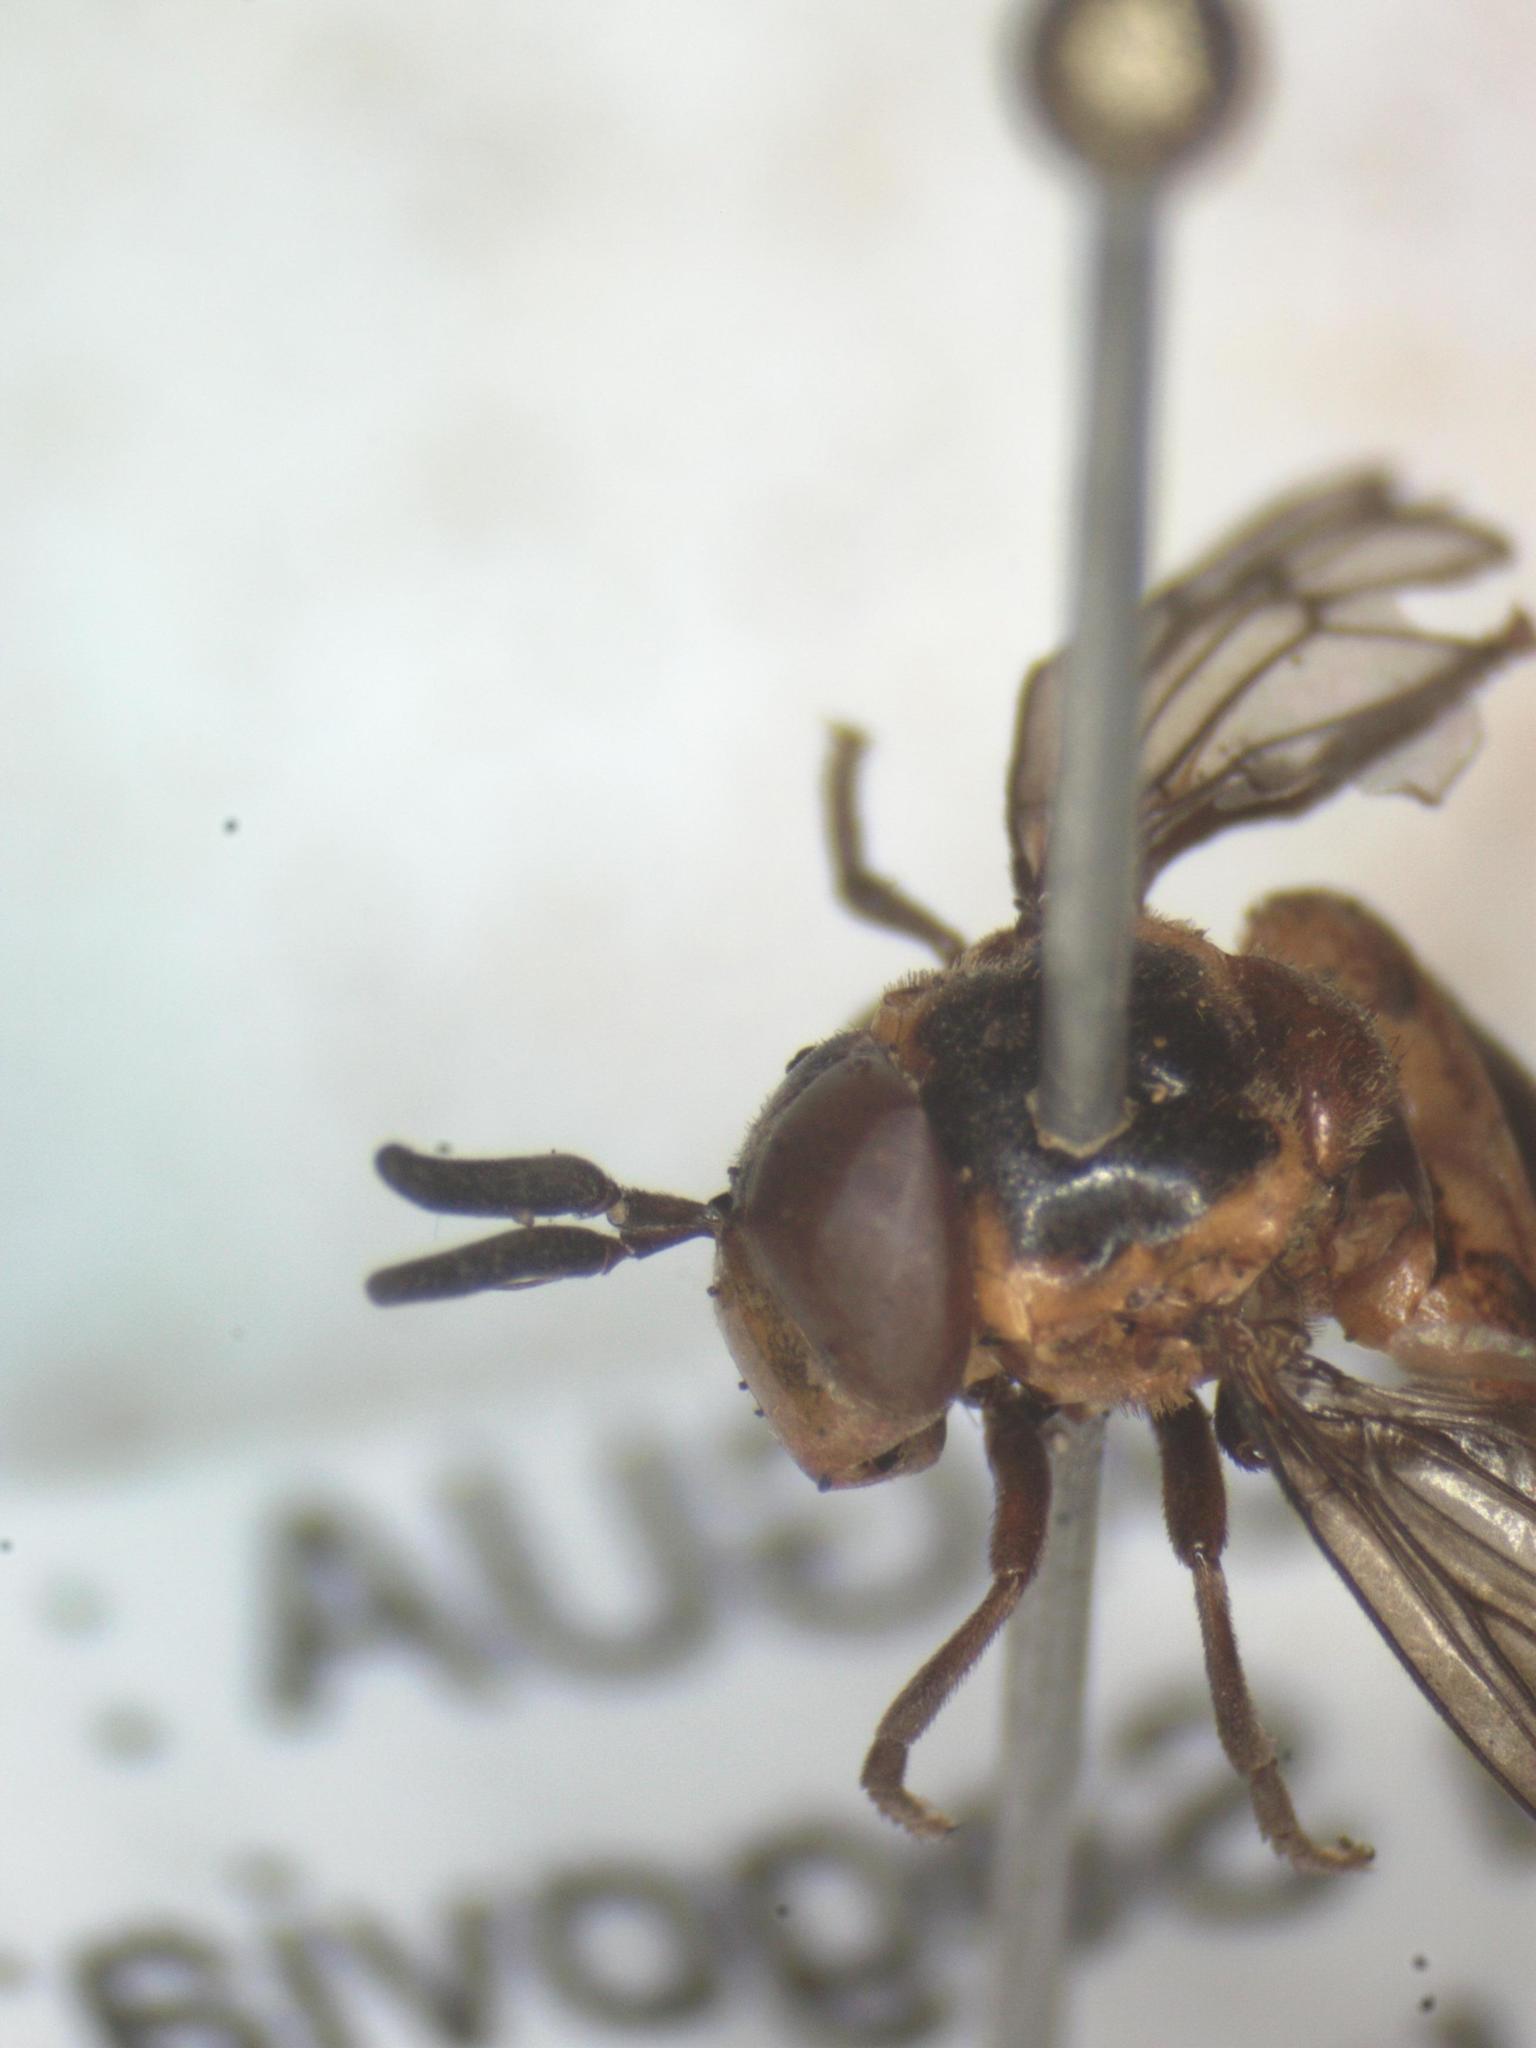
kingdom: Animalia
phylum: Arthropoda
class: Insecta
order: Diptera
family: Syrphidae
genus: Menidon
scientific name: Menidon falcatus
